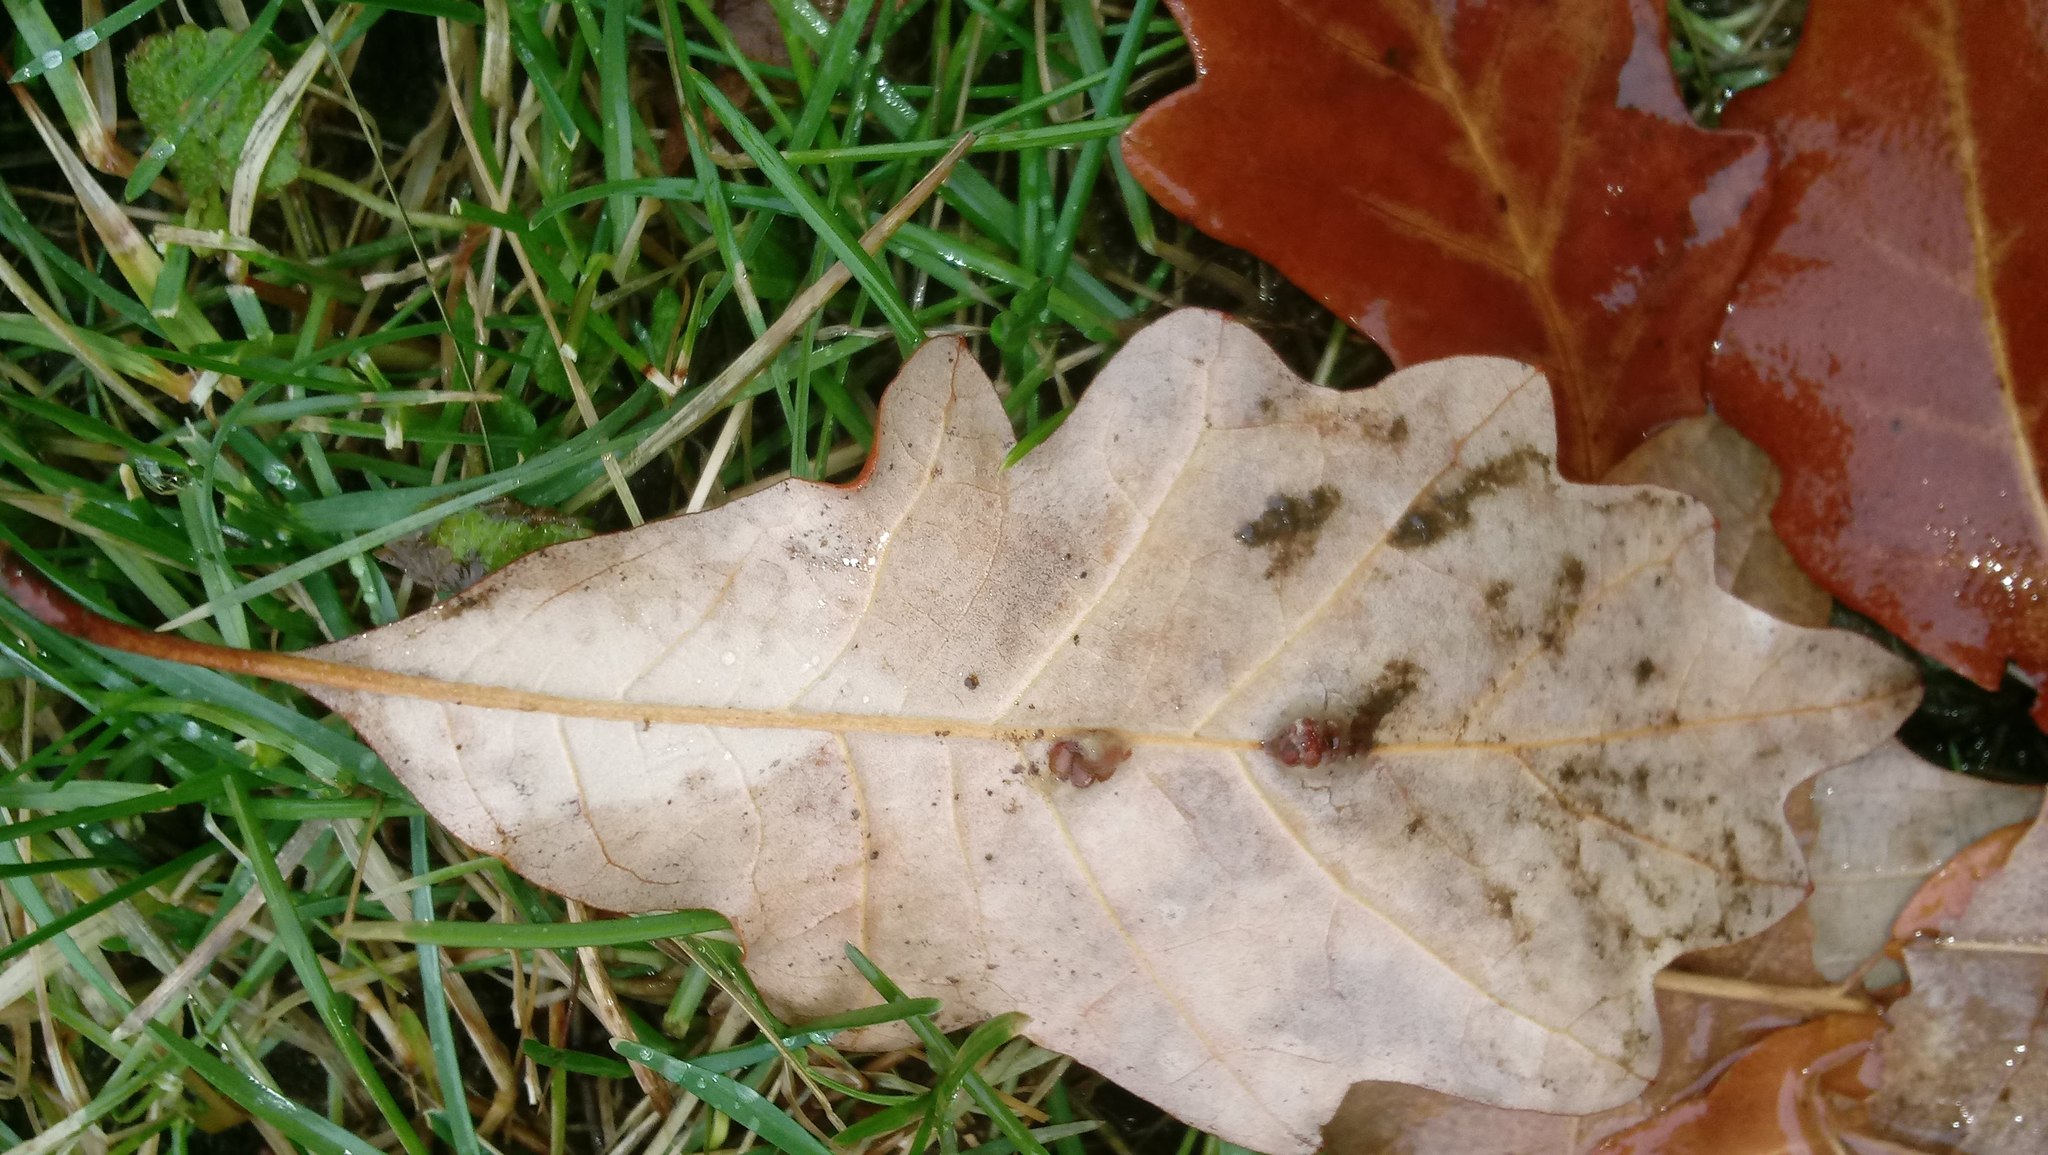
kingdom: Animalia
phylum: Arthropoda
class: Insecta
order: Hymenoptera
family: Cynipidae
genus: Andricus
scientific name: Andricus Druon ignotum
